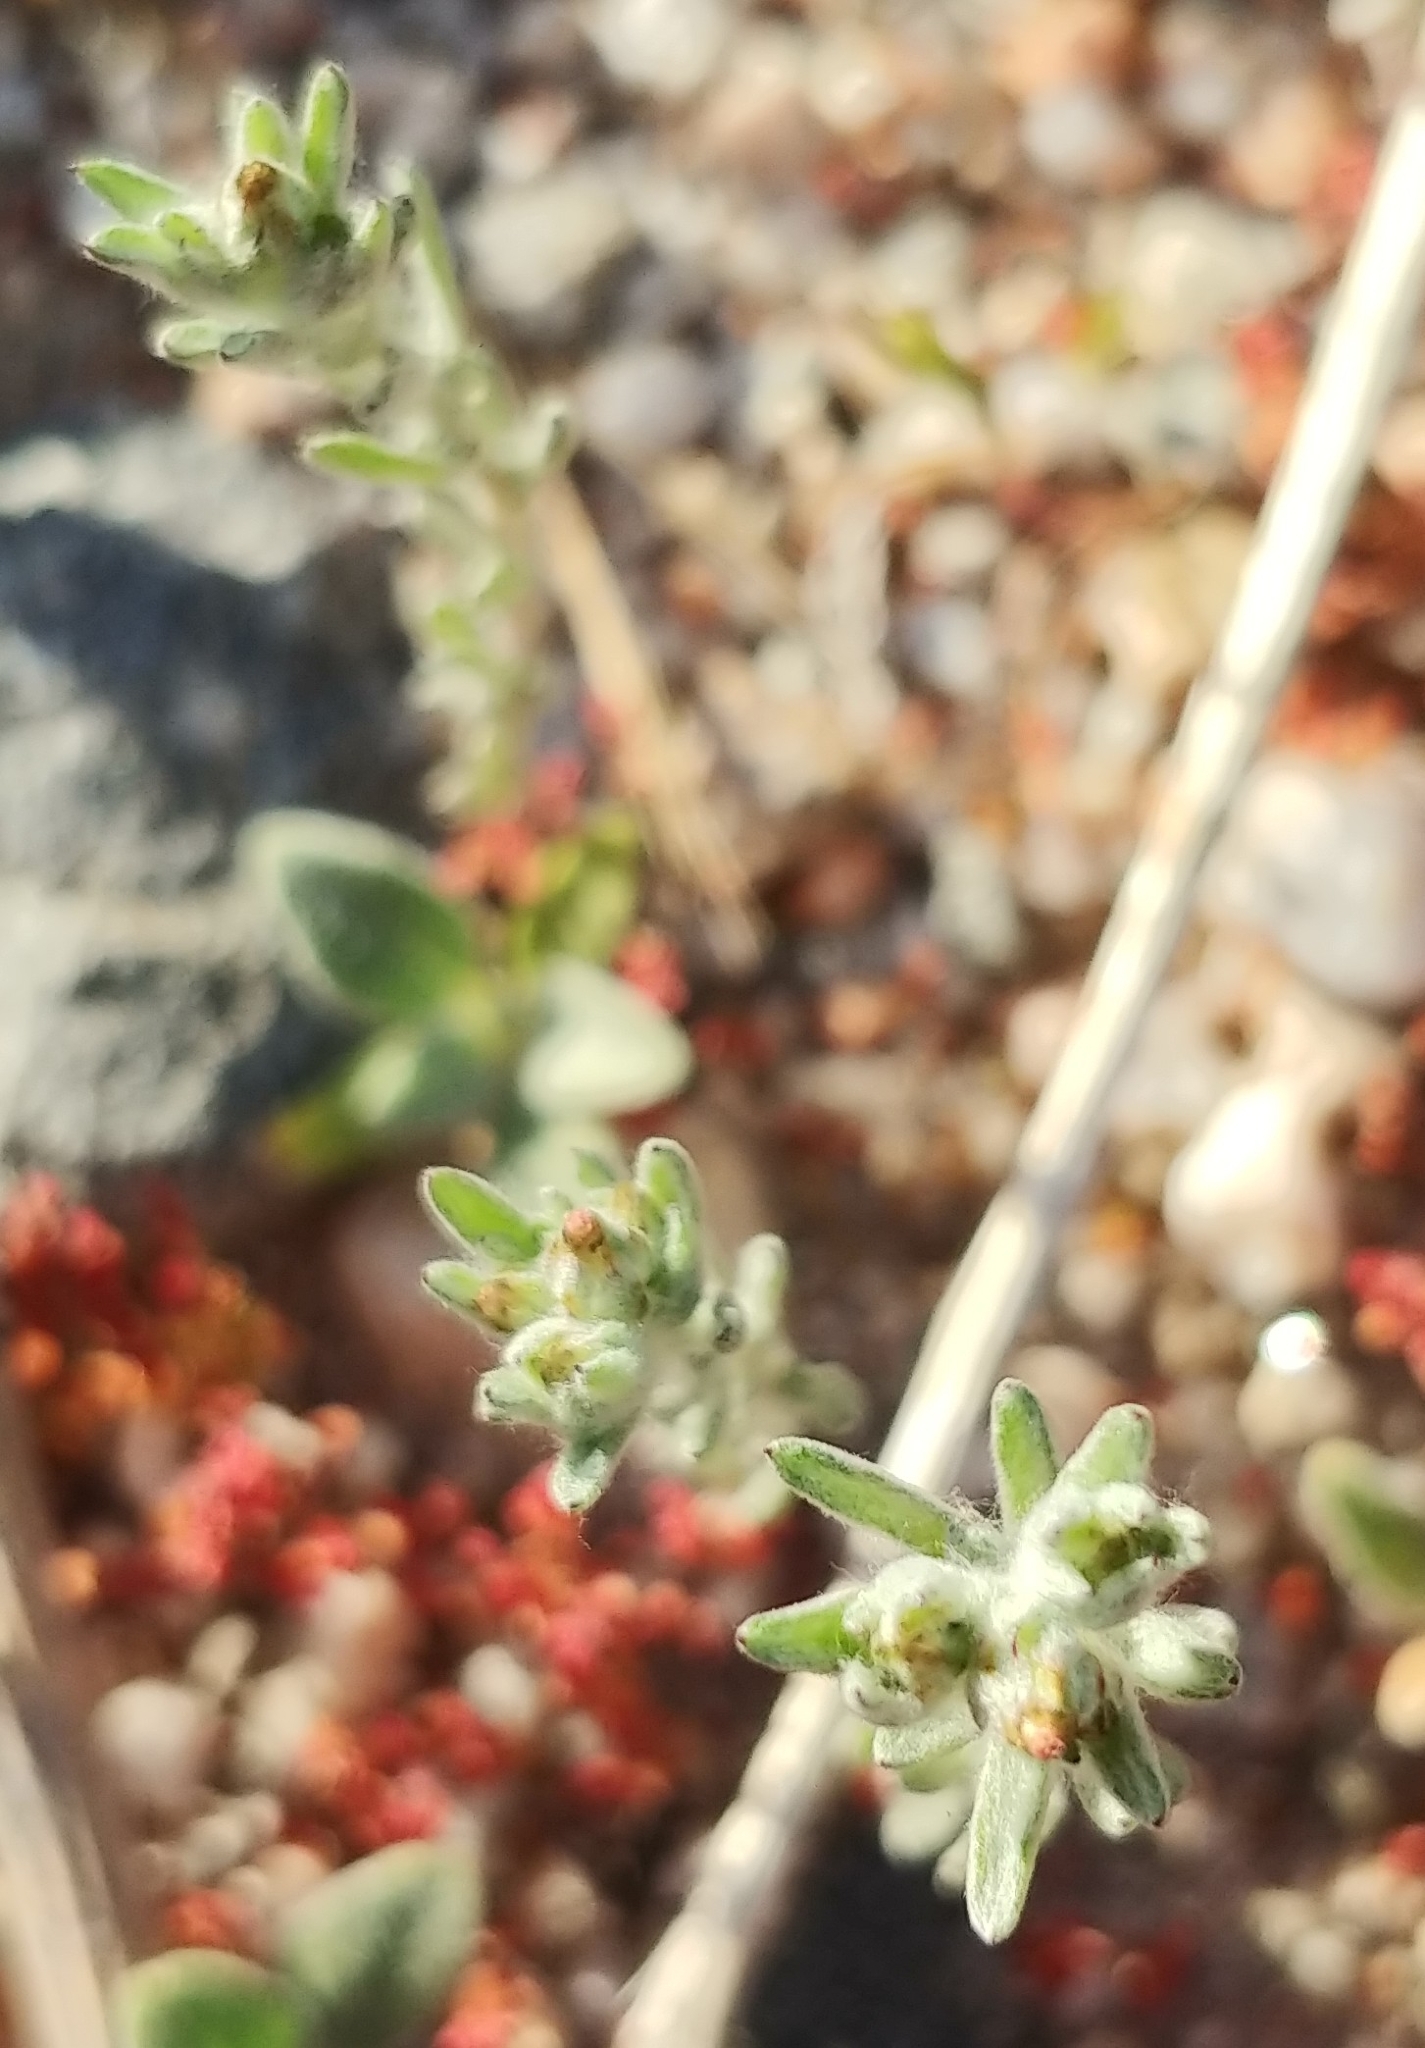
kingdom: Plantae
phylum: Tracheophyta
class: Magnoliopsida
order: Asterales
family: Asteraceae
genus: Logfia
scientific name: Logfia californica
